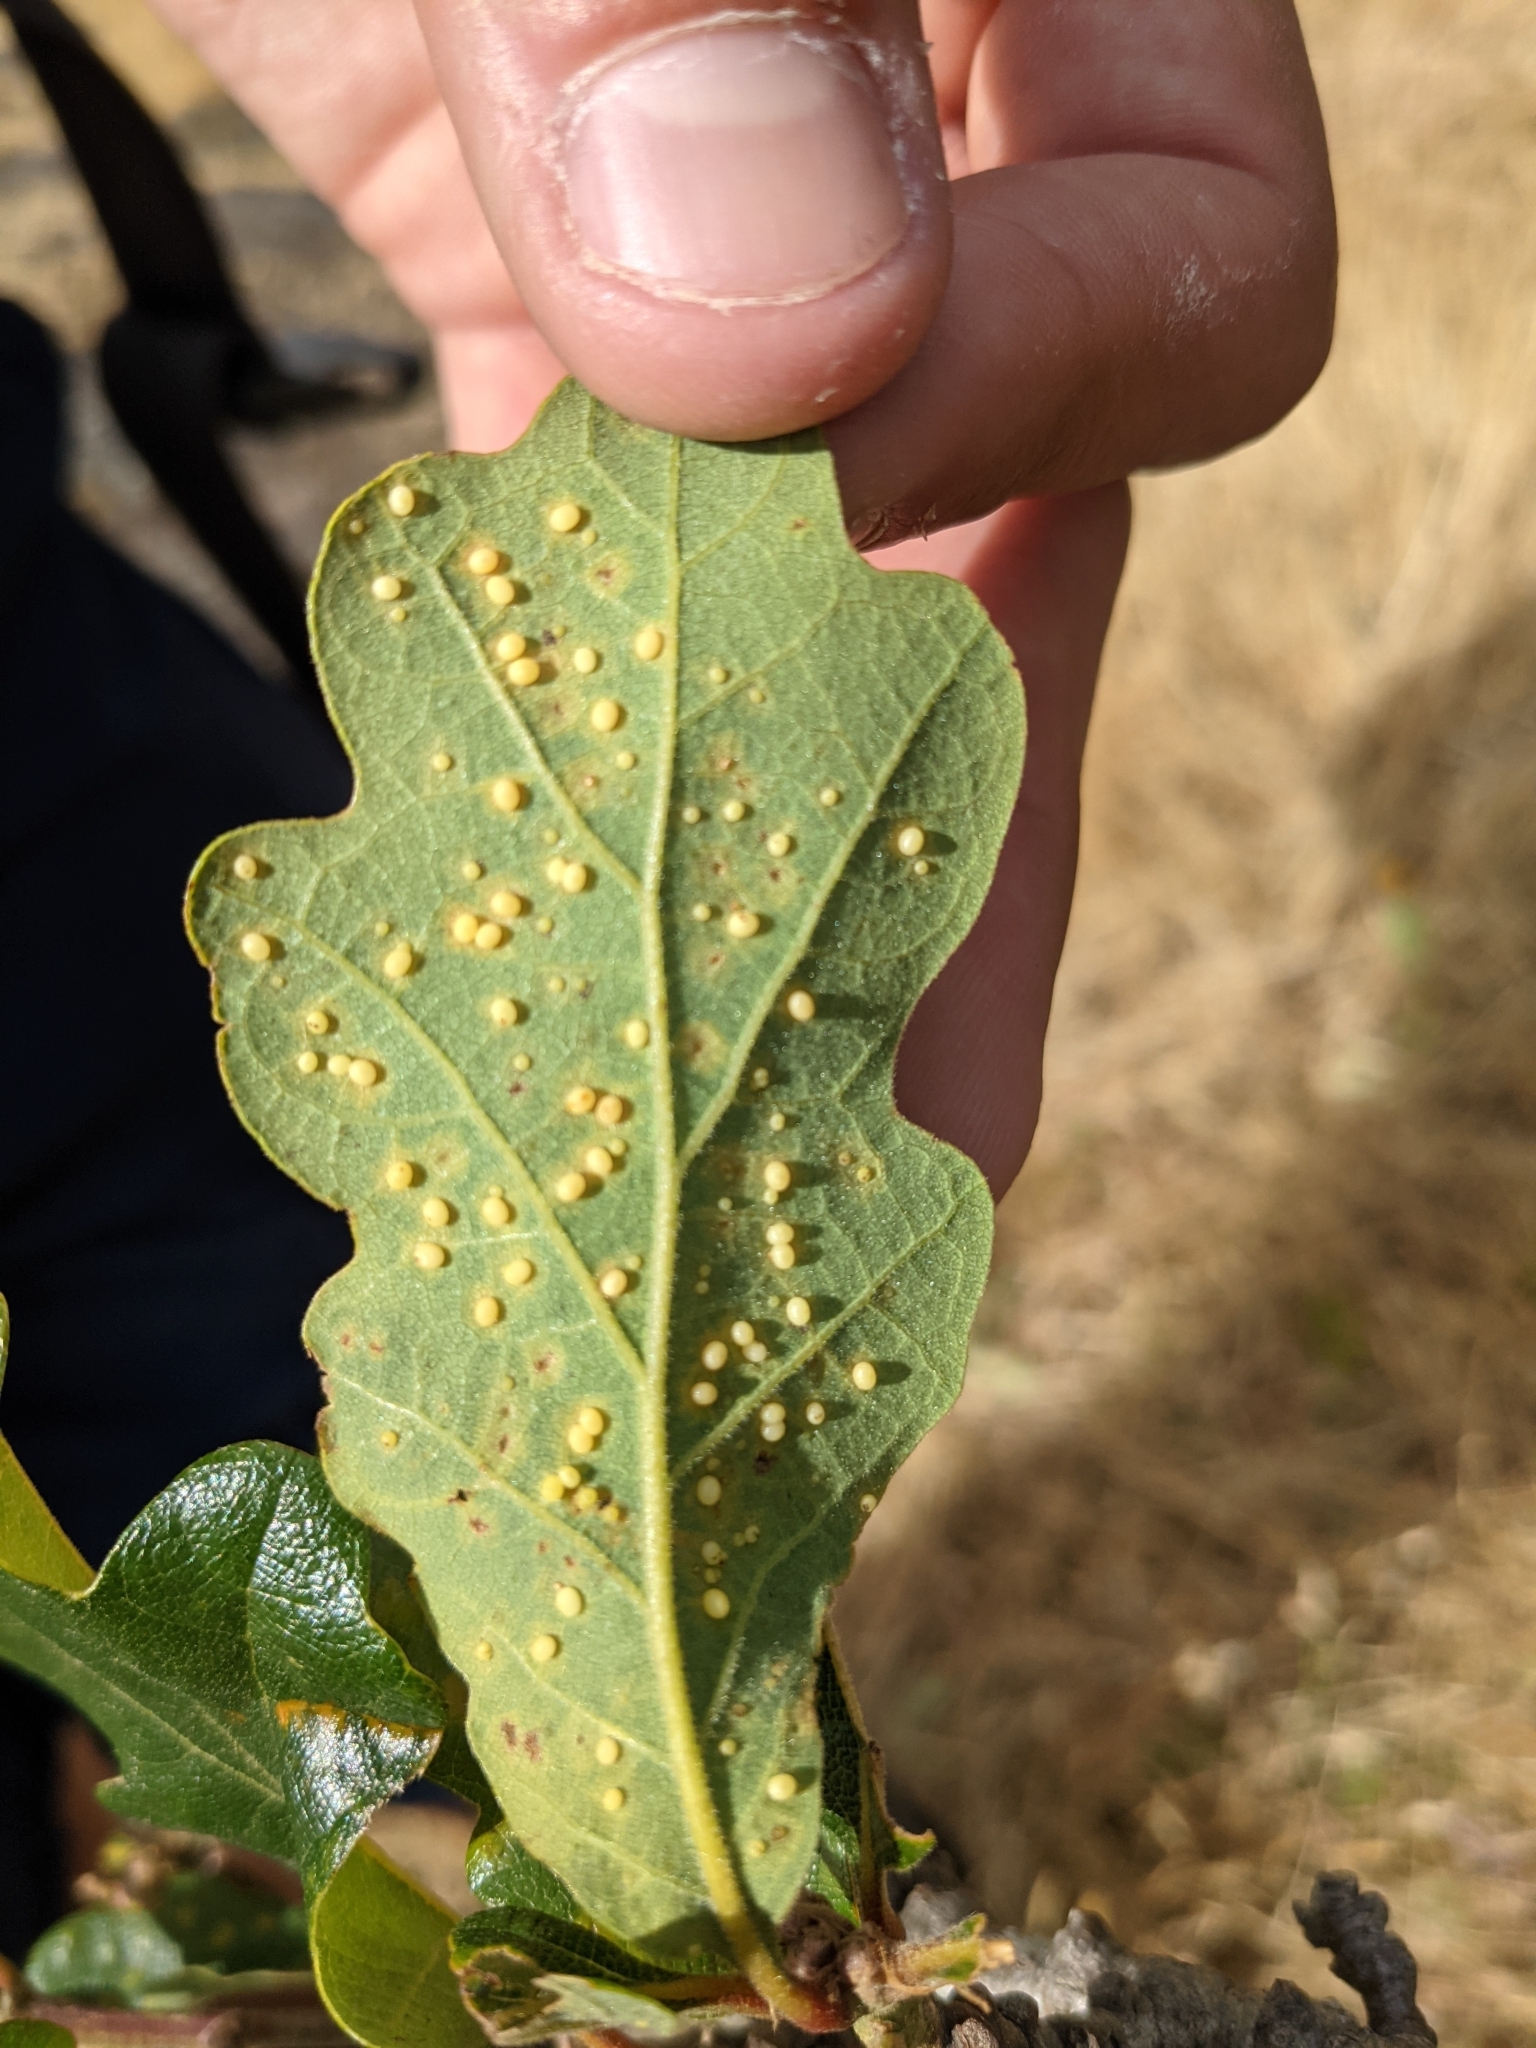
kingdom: Animalia
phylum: Arthropoda
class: Insecta
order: Hymenoptera
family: Cynipidae
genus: Neuroterus
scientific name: Neuroterus saltarius
